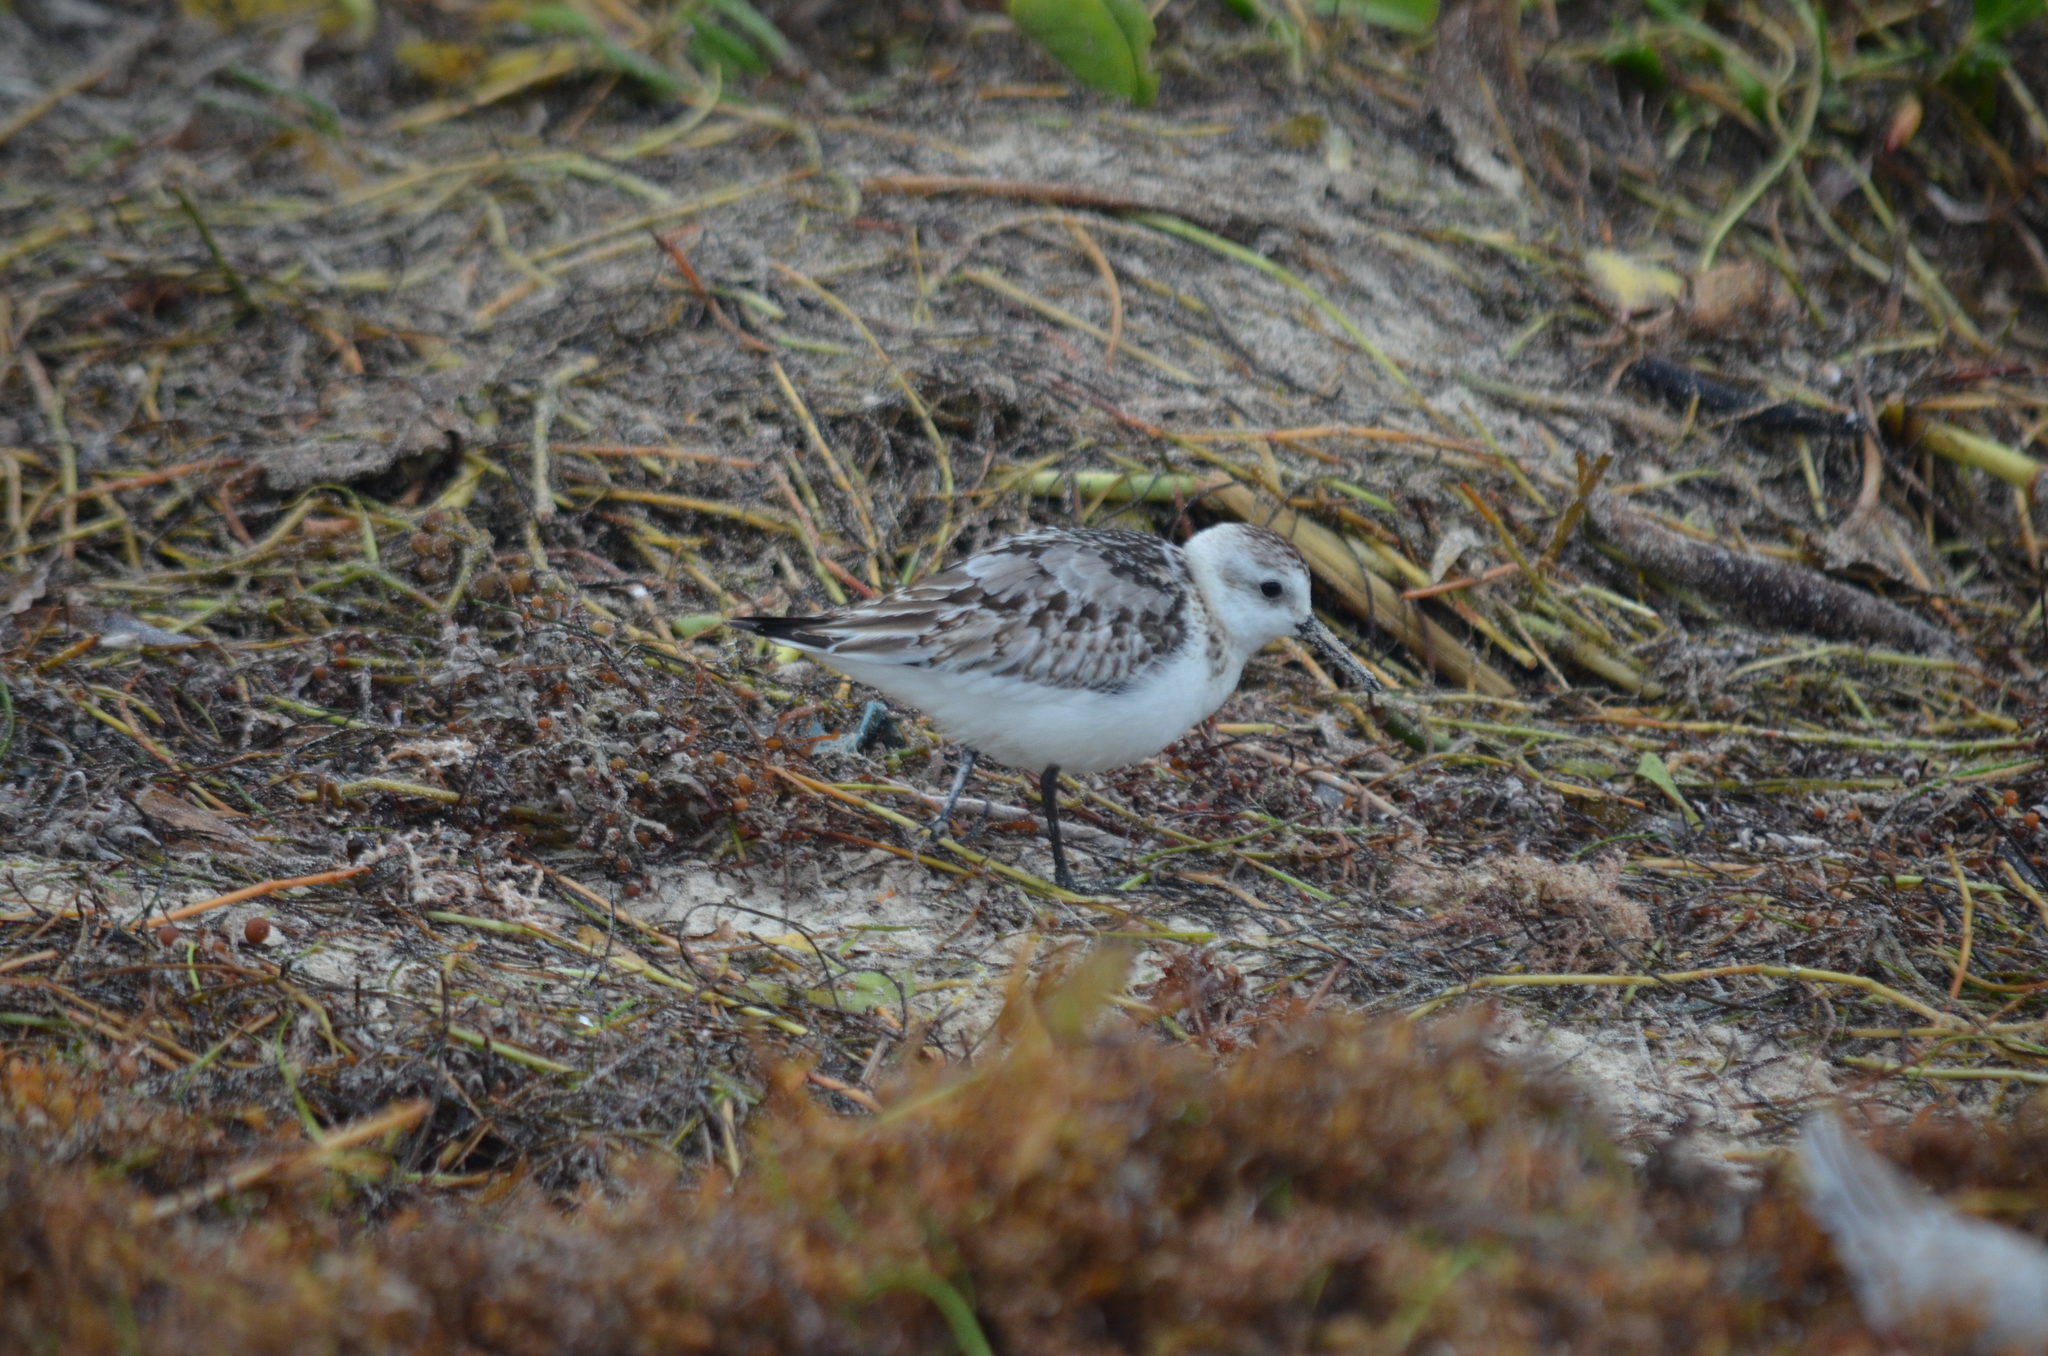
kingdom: Animalia
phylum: Chordata
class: Aves
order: Charadriiformes
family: Scolopacidae
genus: Calidris
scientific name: Calidris alba
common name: Sanderling
